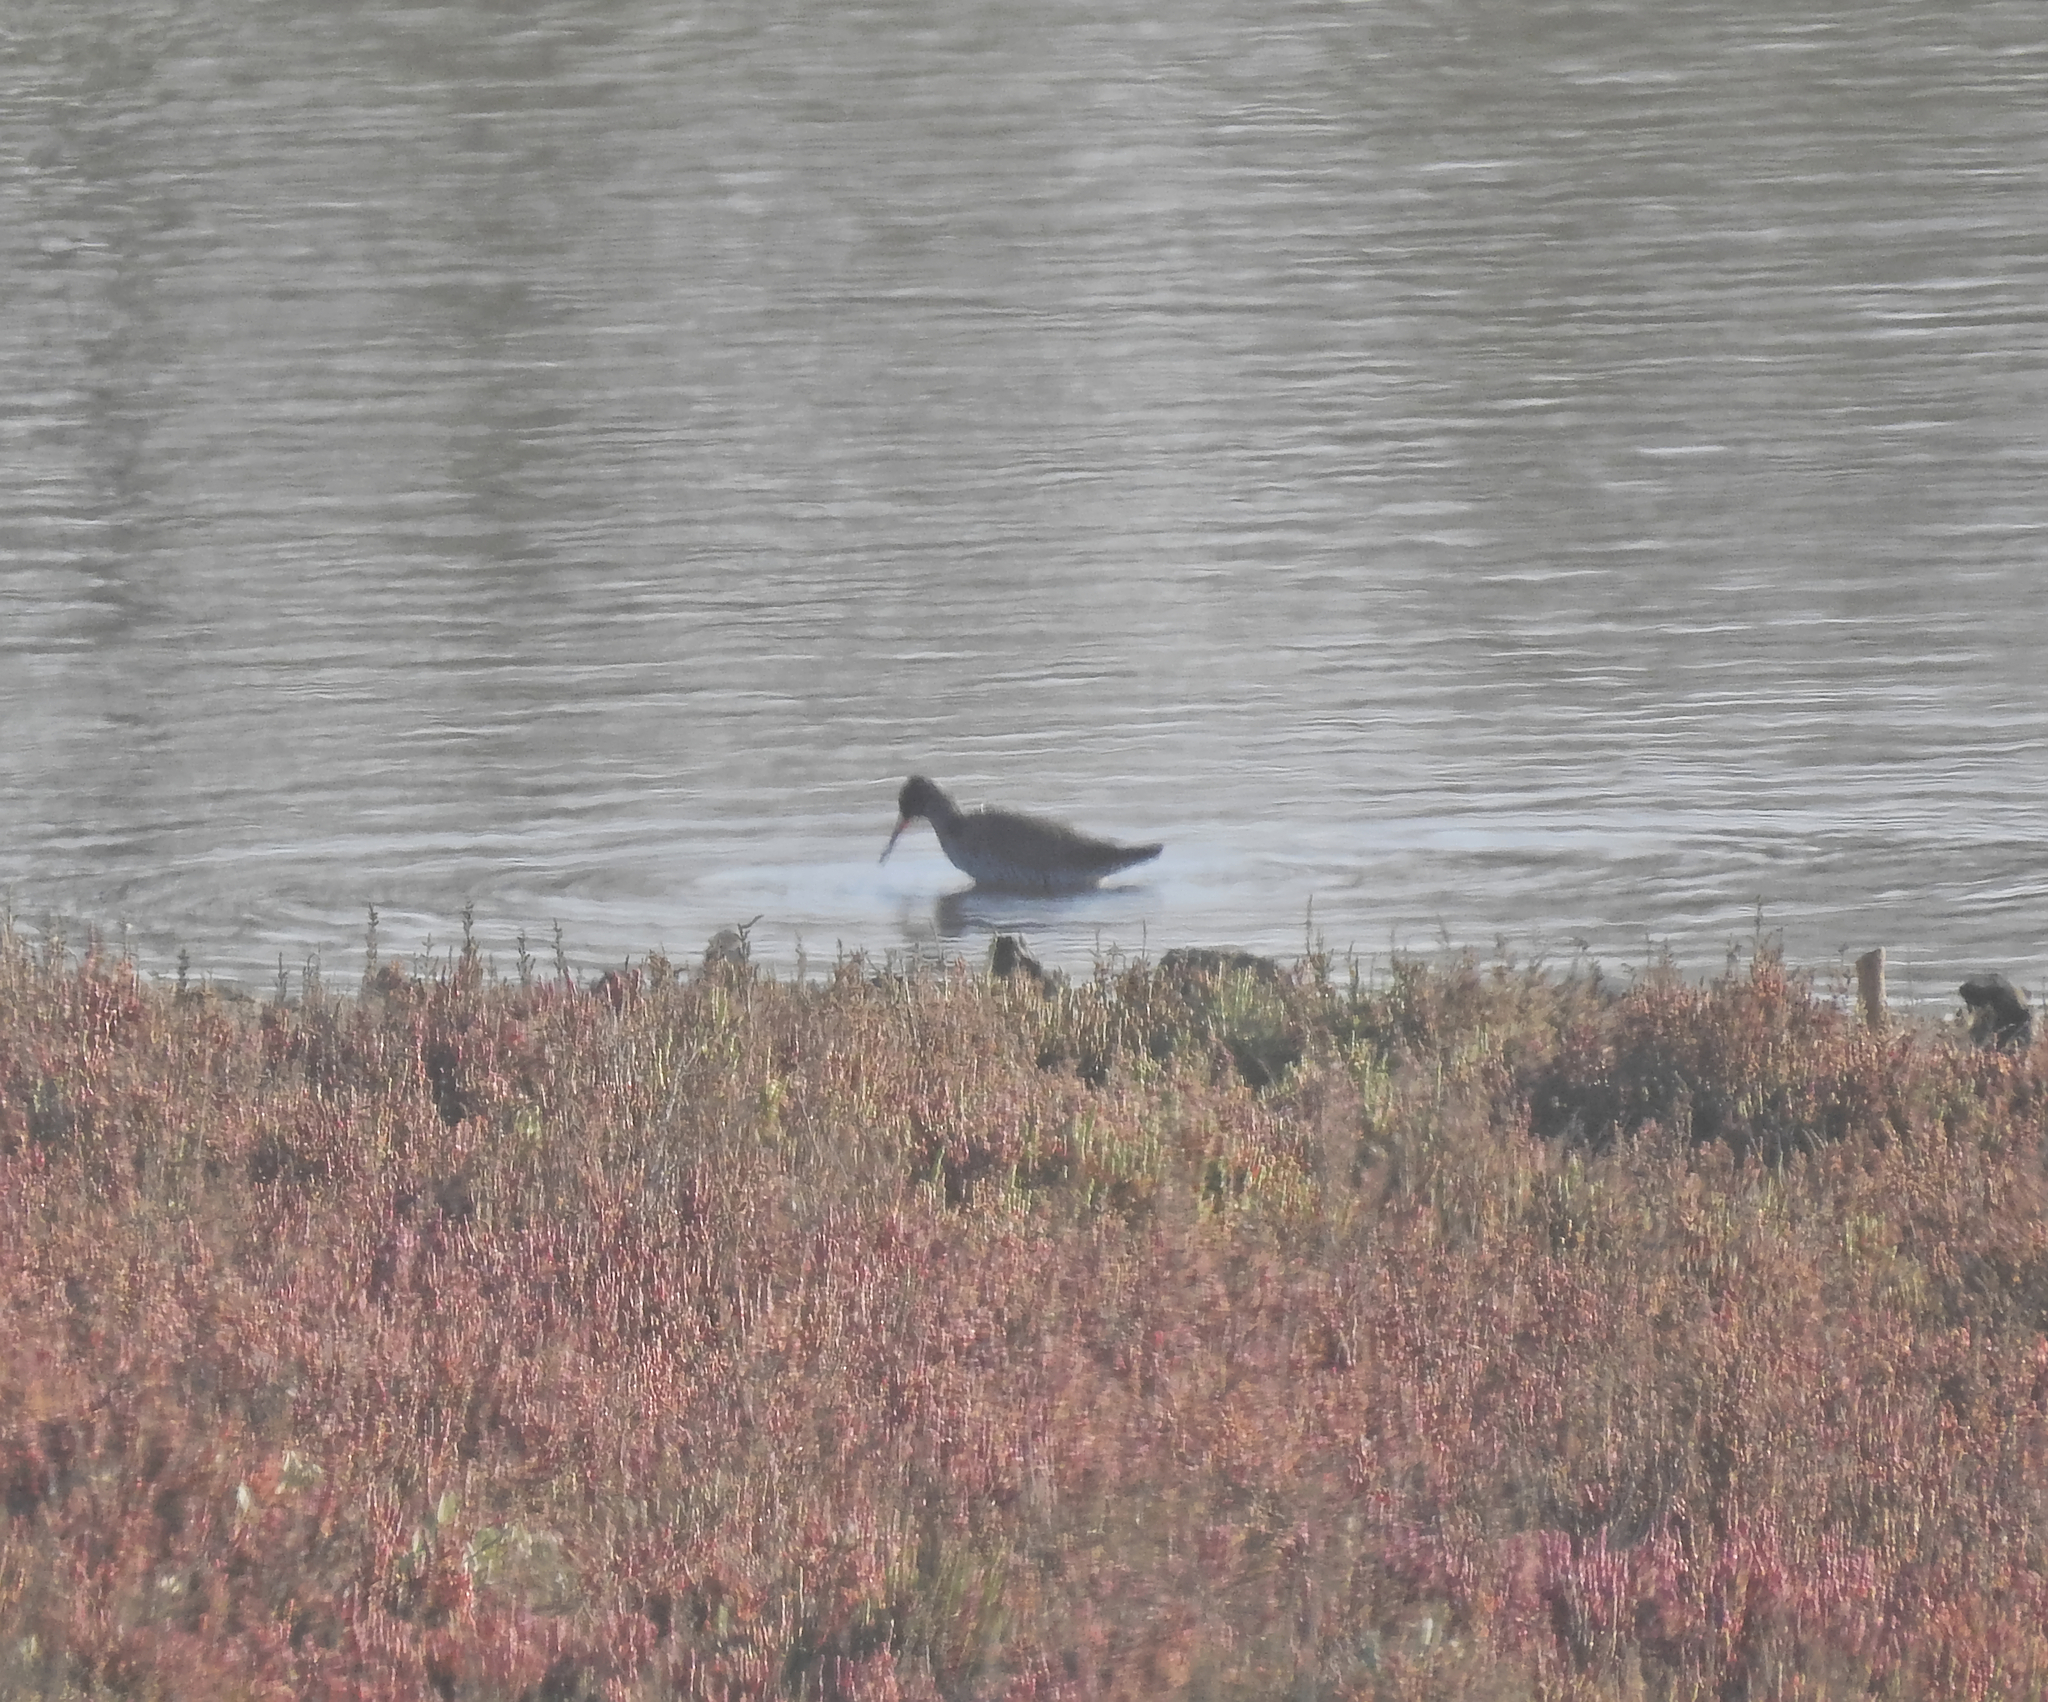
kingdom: Animalia
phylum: Chordata
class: Aves
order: Charadriiformes
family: Scolopacidae
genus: Tringa
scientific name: Tringa totanus
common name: Common redshank
